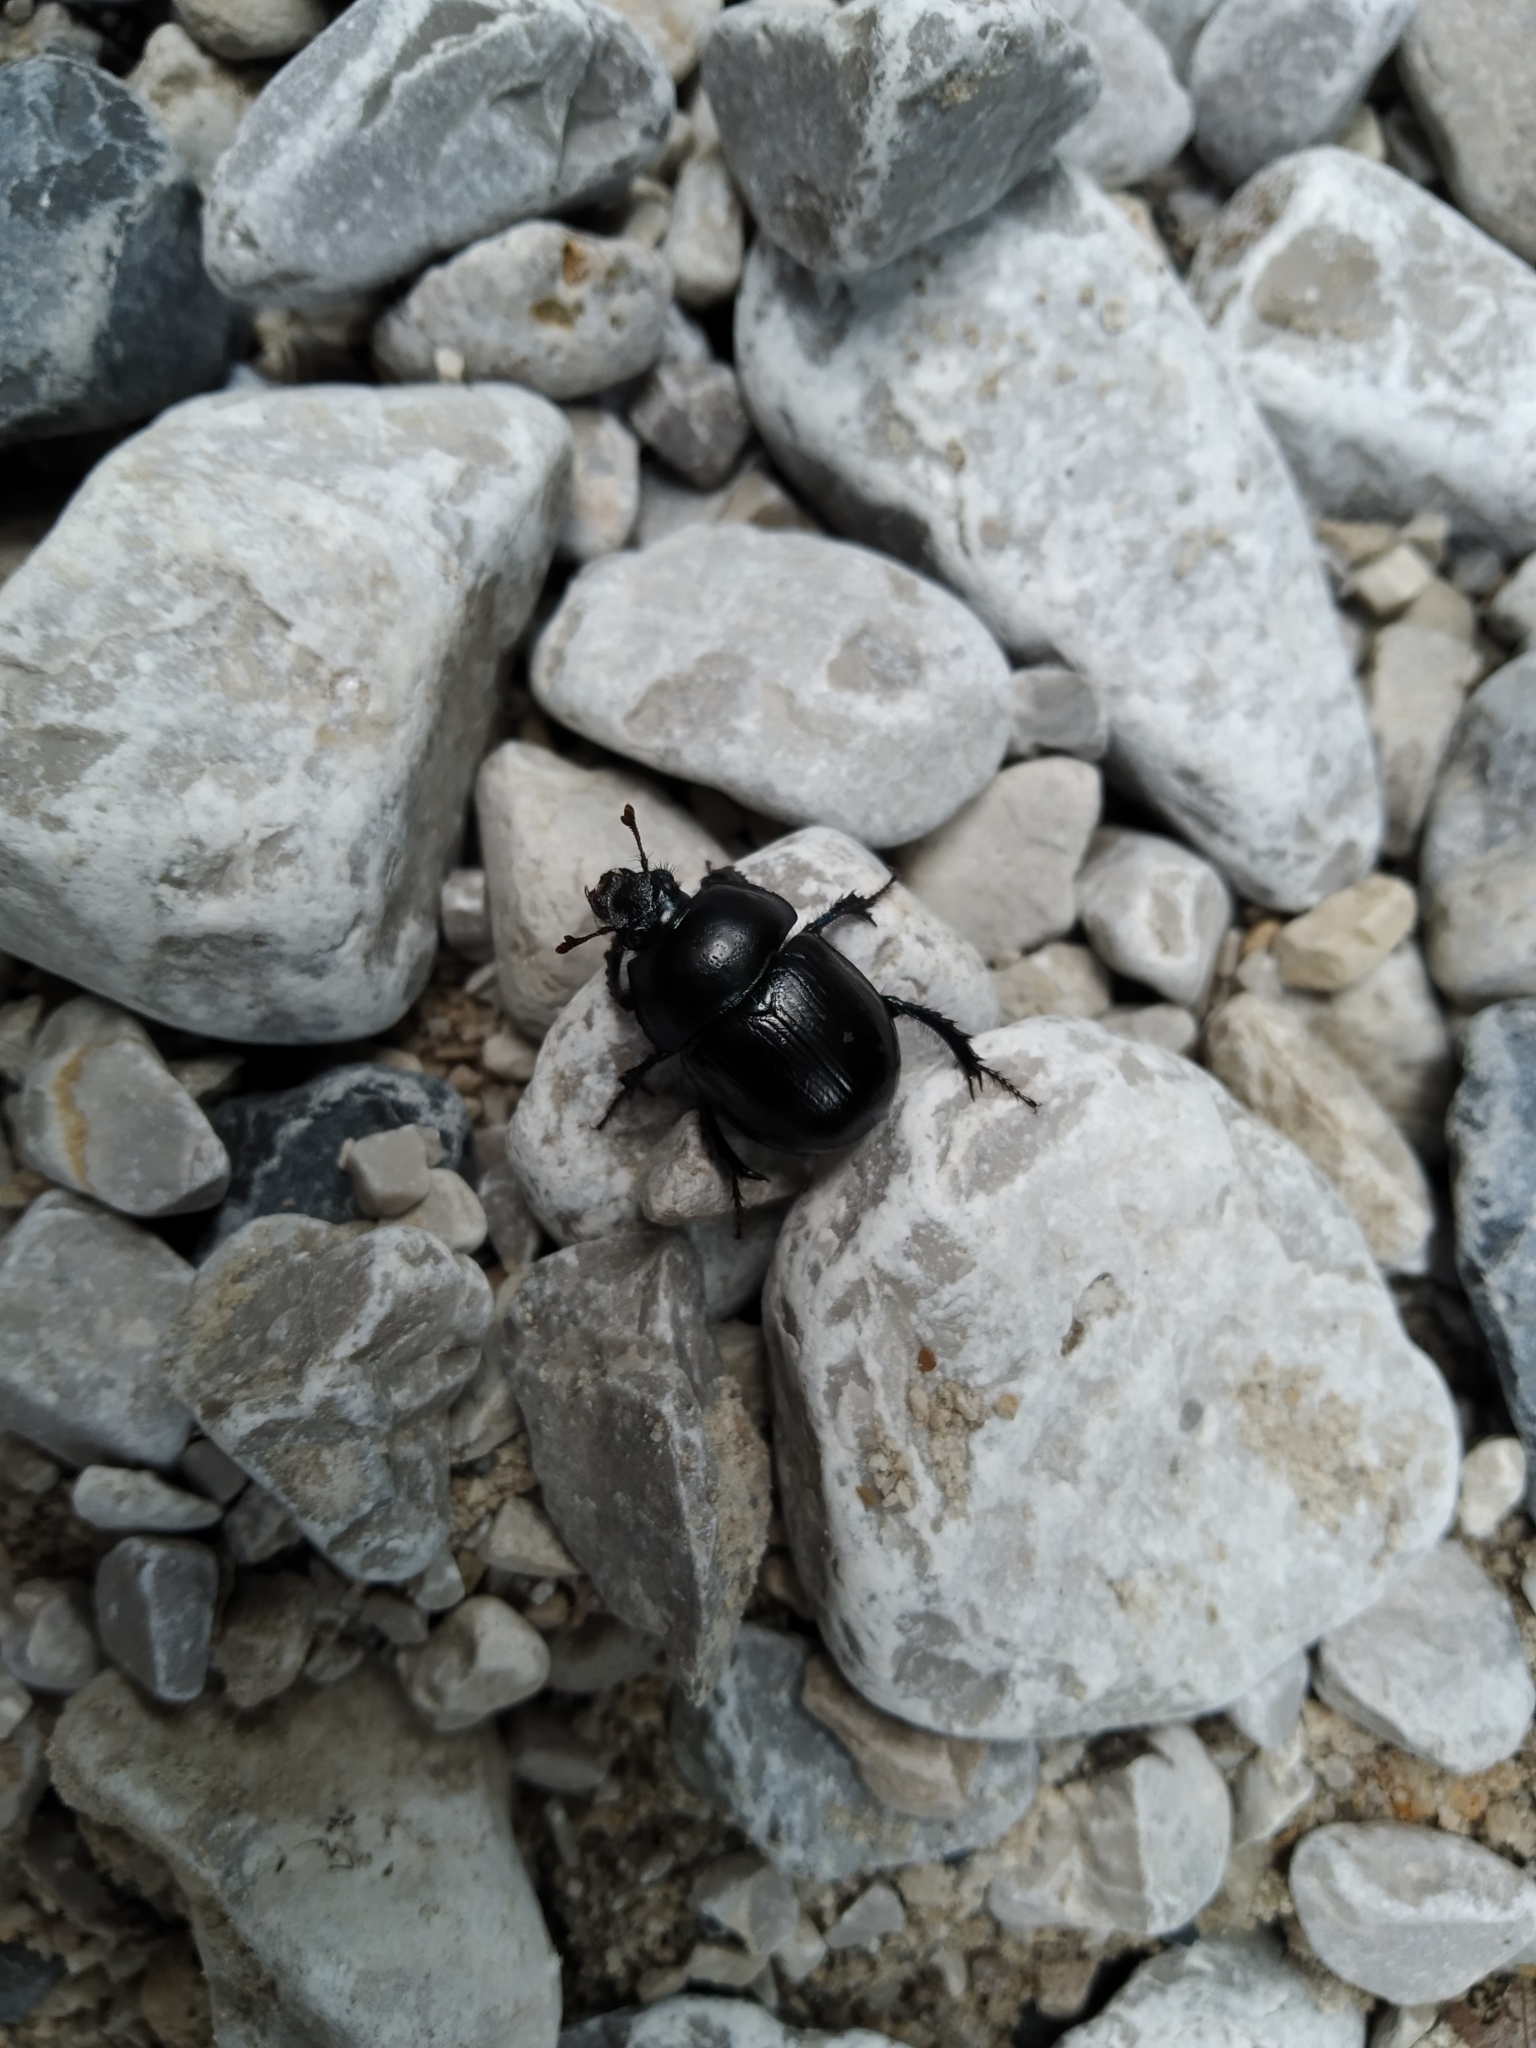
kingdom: Animalia
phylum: Arthropoda
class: Insecta
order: Coleoptera
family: Geotrupidae
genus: Anoplotrupes
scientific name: Anoplotrupes stercorosus
